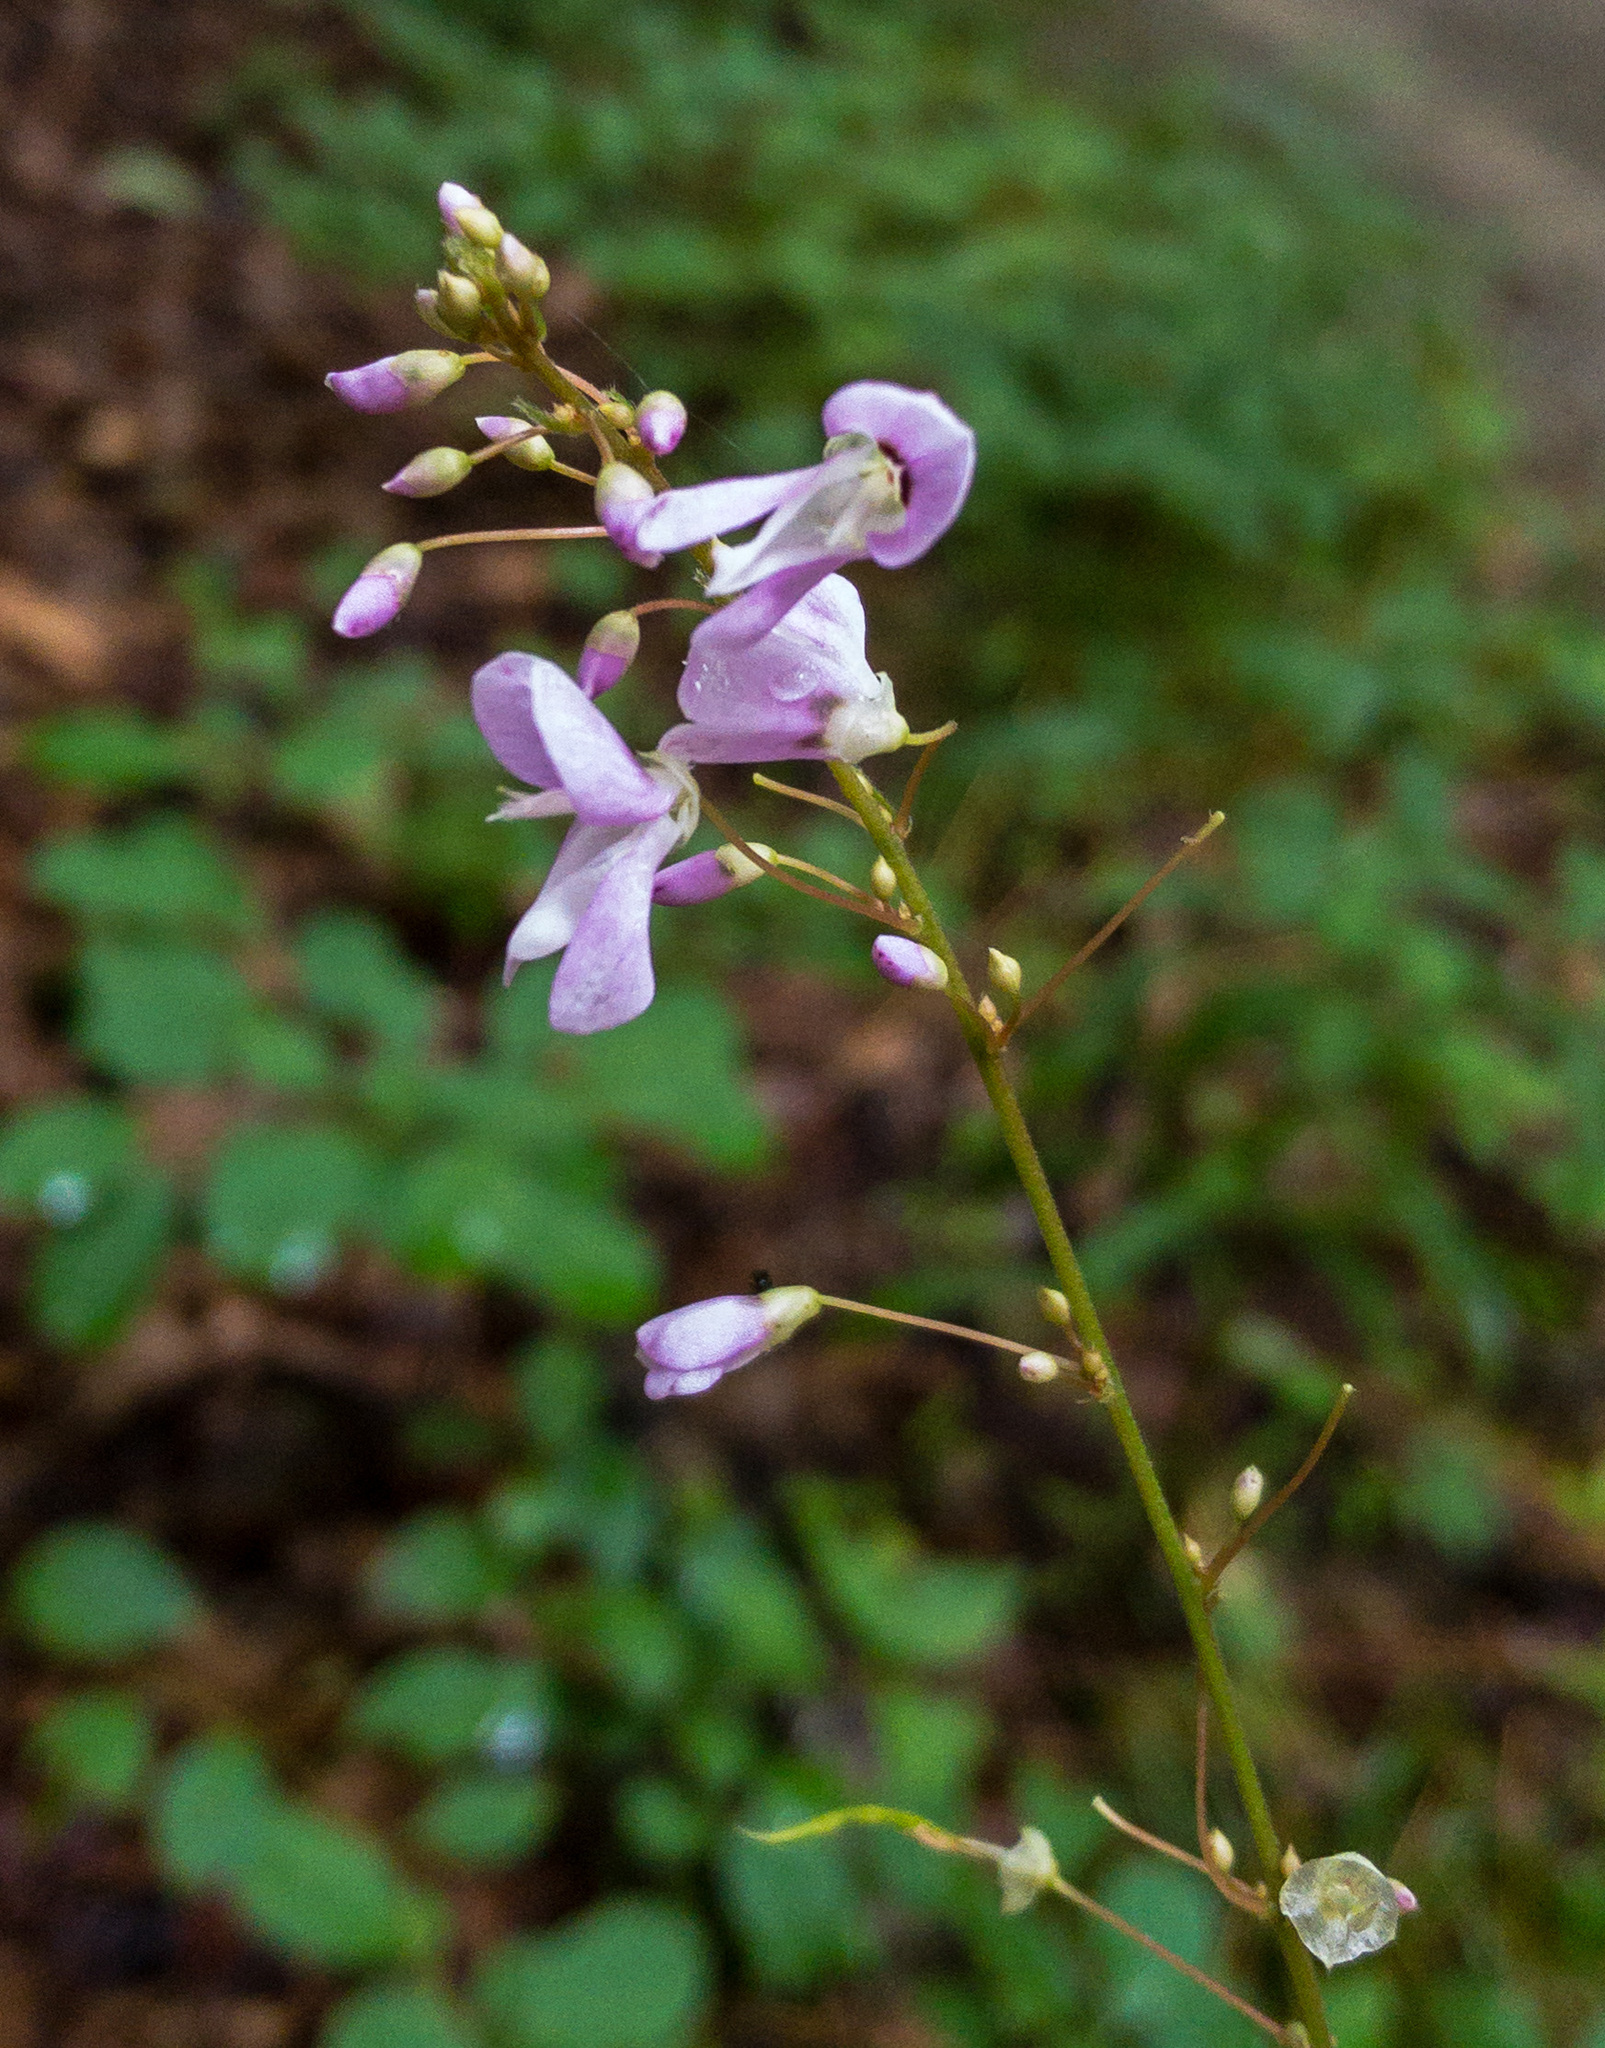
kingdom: Plantae
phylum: Tracheophyta
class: Magnoliopsida
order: Fabales
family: Fabaceae
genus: Hylodesmum
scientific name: Hylodesmum nudiflorum
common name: Bare-stemmed tick-trefoil
